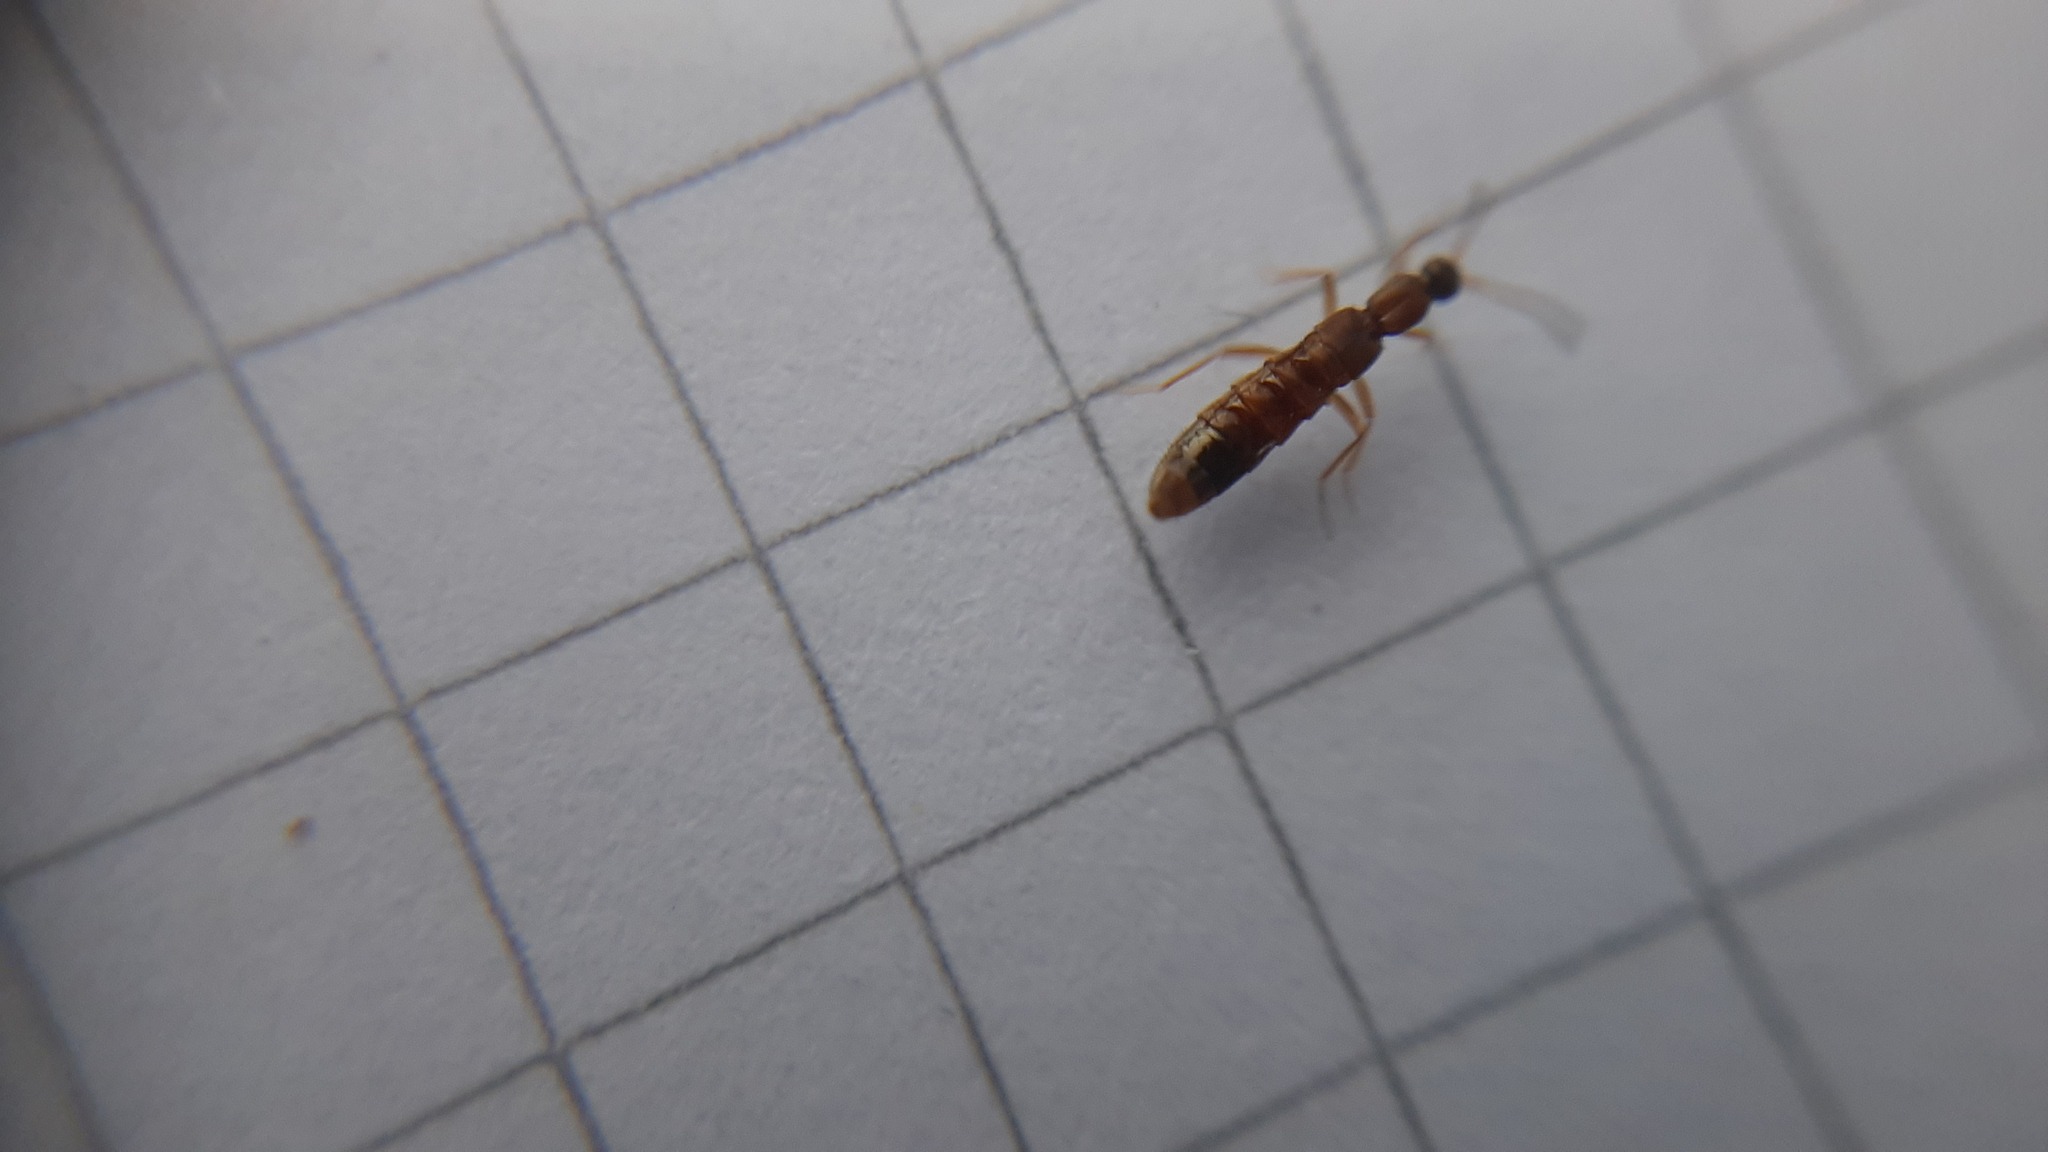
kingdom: Animalia
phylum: Arthropoda
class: Insecta
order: Coleoptera
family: Staphylinidae
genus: Drusilla
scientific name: Drusilla canaliculata
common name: Rove beetle
